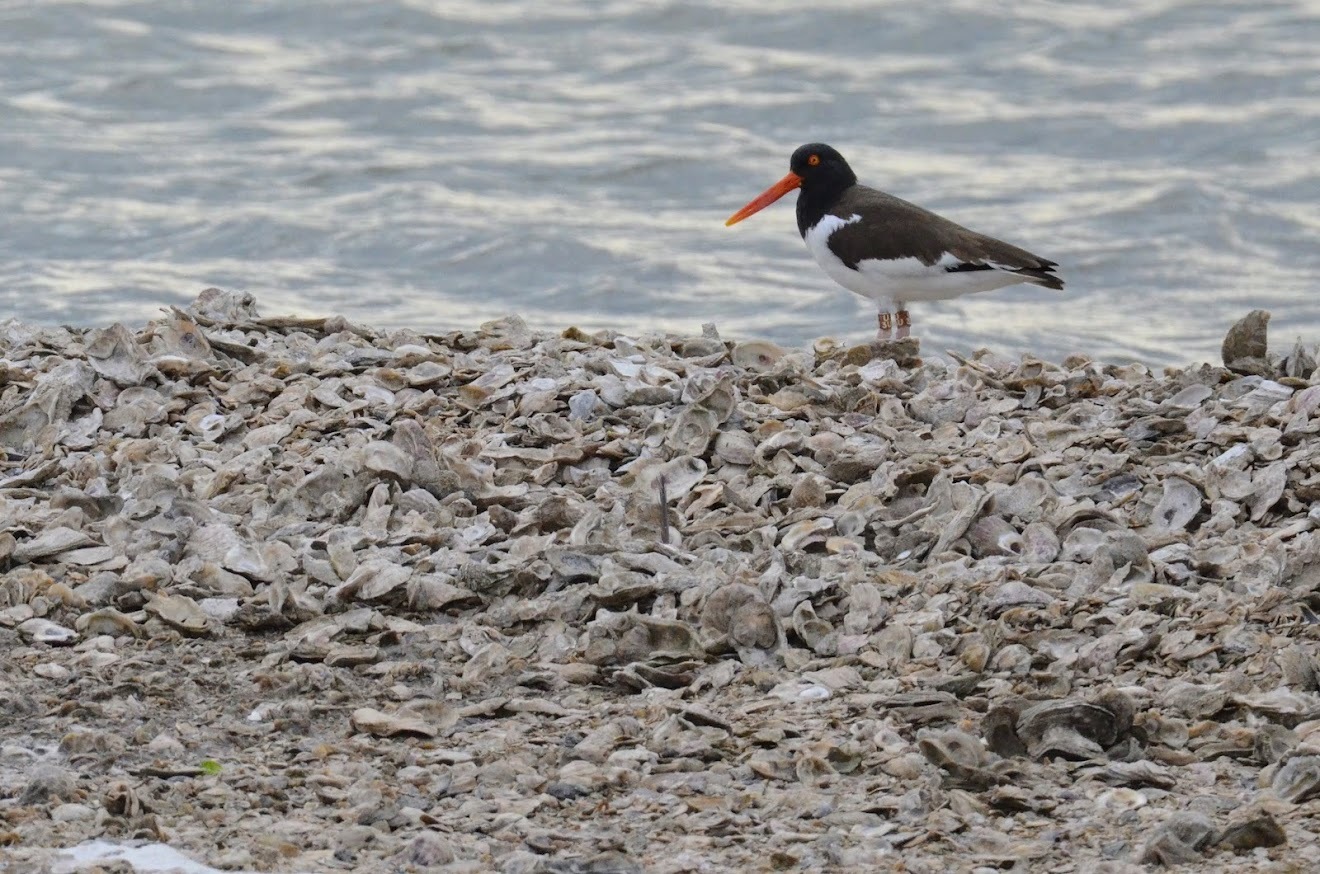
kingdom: Animalia
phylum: Chordata
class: Aves
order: Charadriiformes
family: Haematopodidae
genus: Haematopus
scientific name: Haematopus palliatus
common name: American oystercatcher
